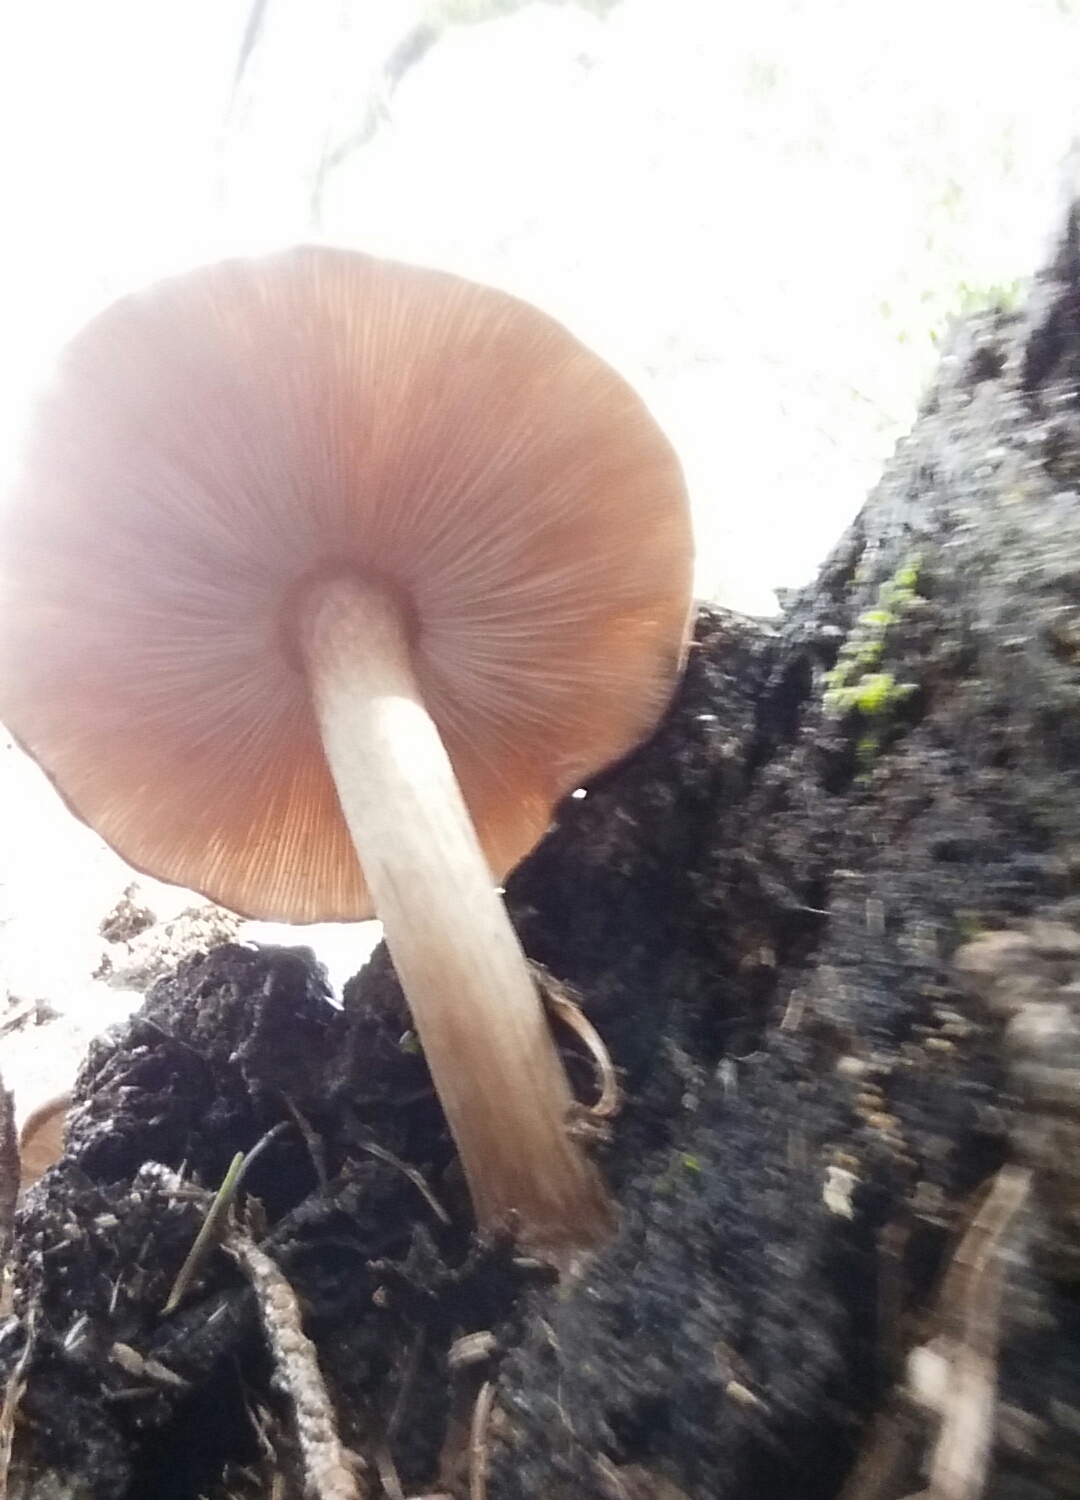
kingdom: Fungi
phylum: Basidiomycota
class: Agaricomycetes
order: Agaricales
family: Pluteaceae
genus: Pluteus
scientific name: Pluteus exilis
